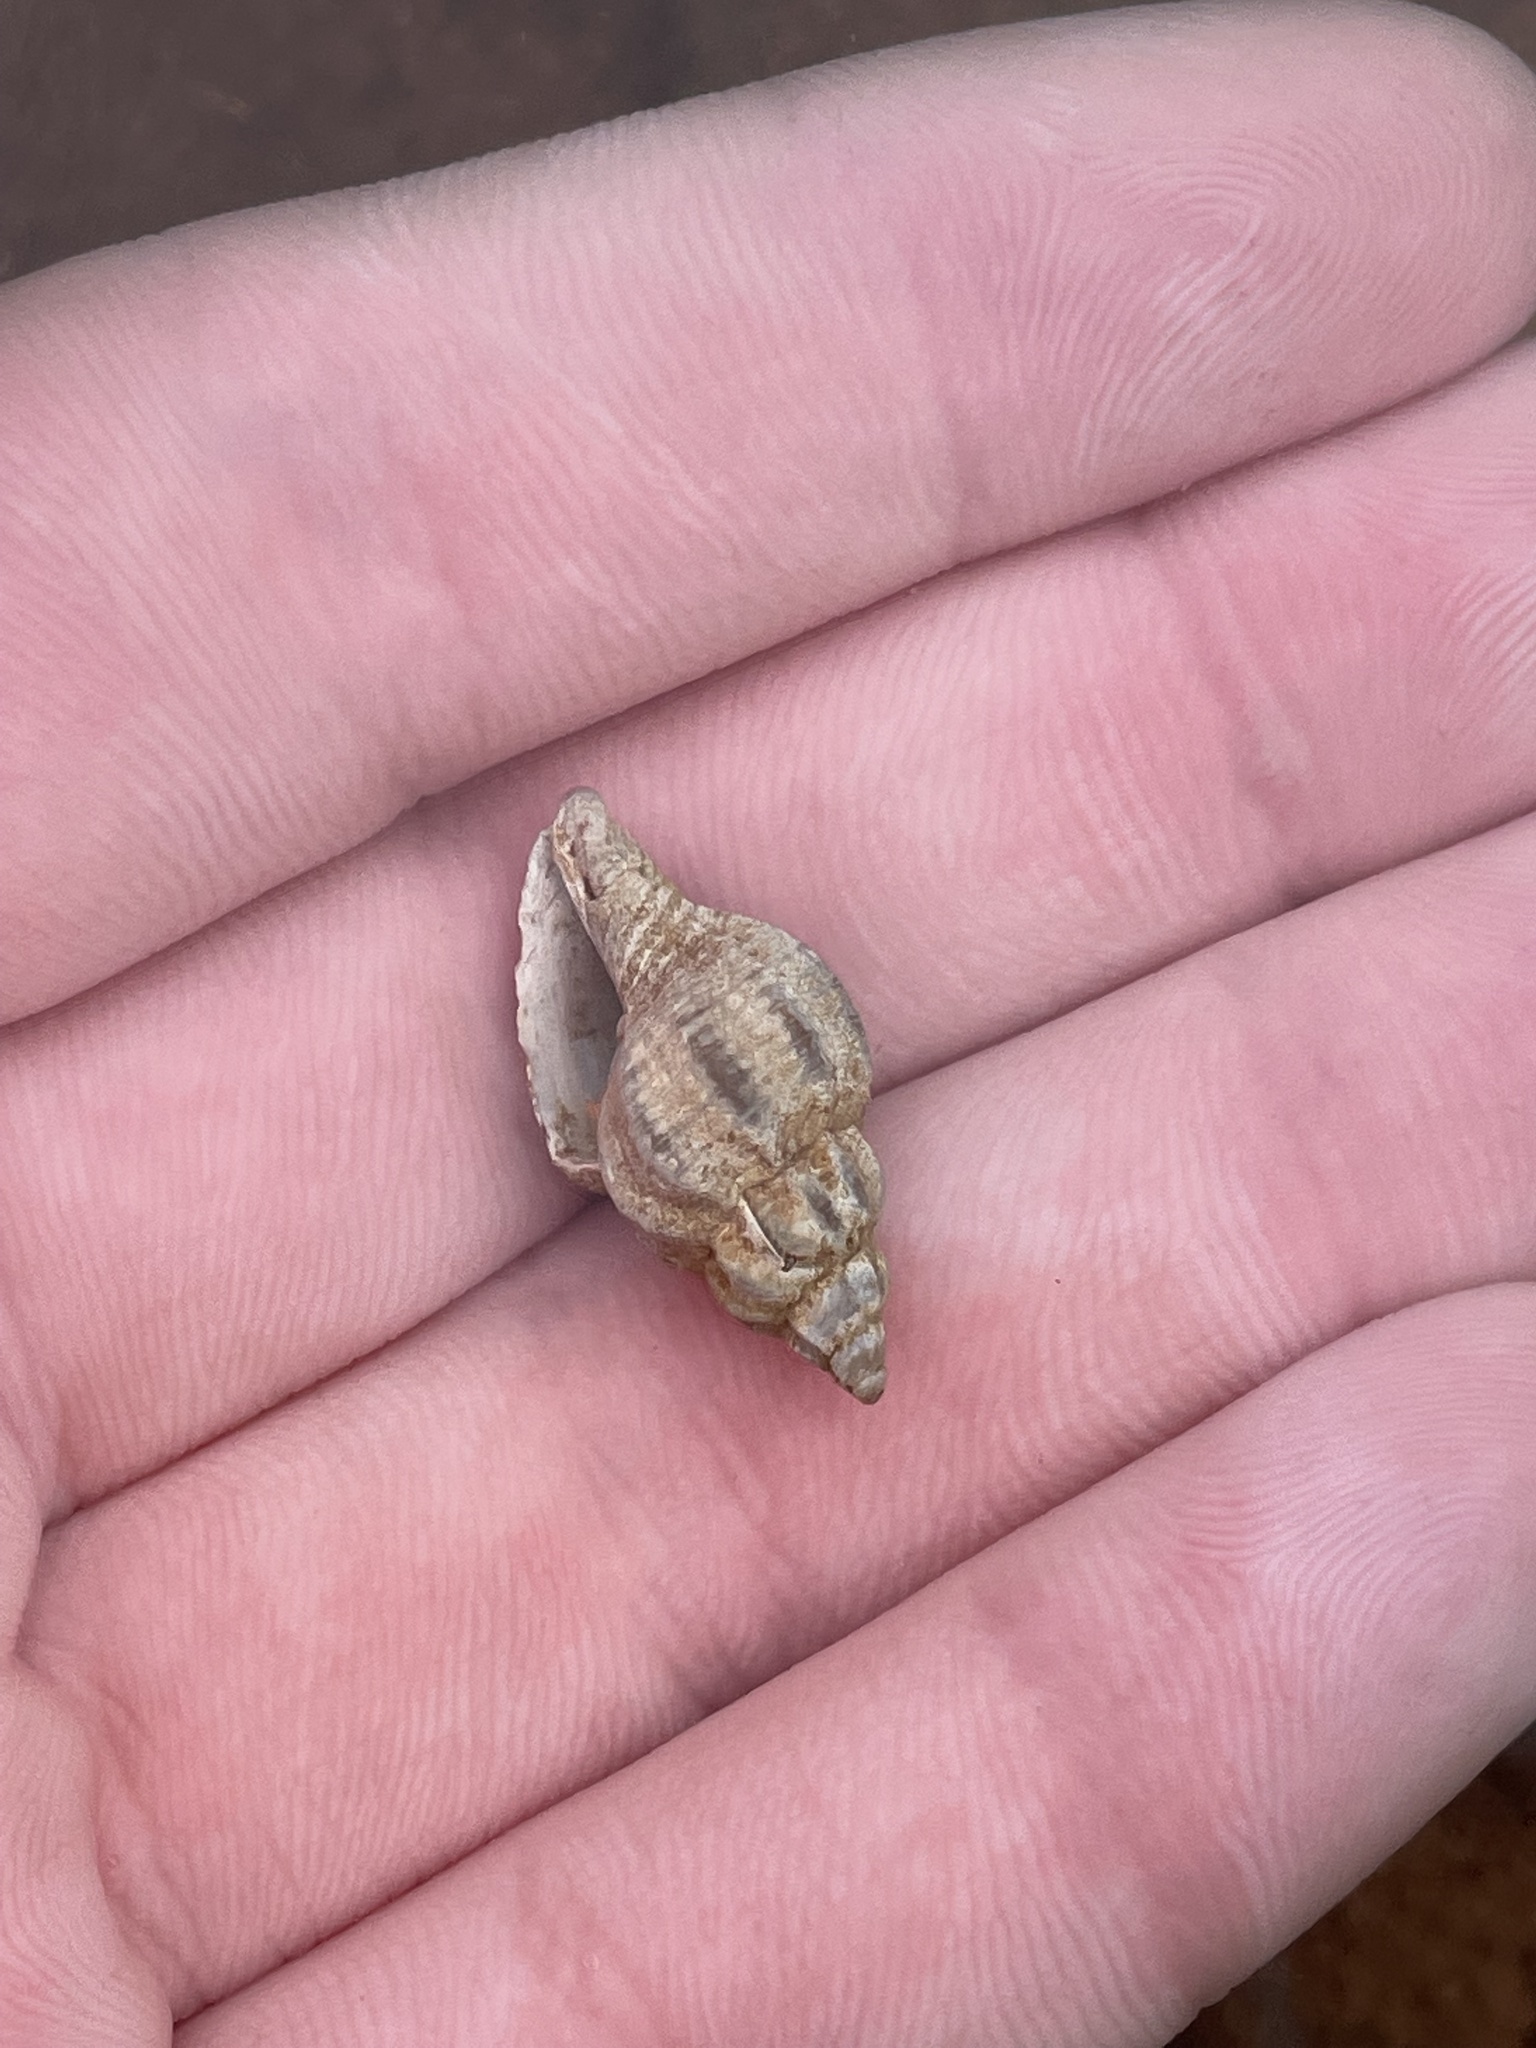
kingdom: Animalia
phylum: Mollusca
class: Gastropoda
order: Neogastropoda
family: Muricidae
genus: Urosalpinx
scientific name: Urosalpinx cinerea
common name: American sting winkle
